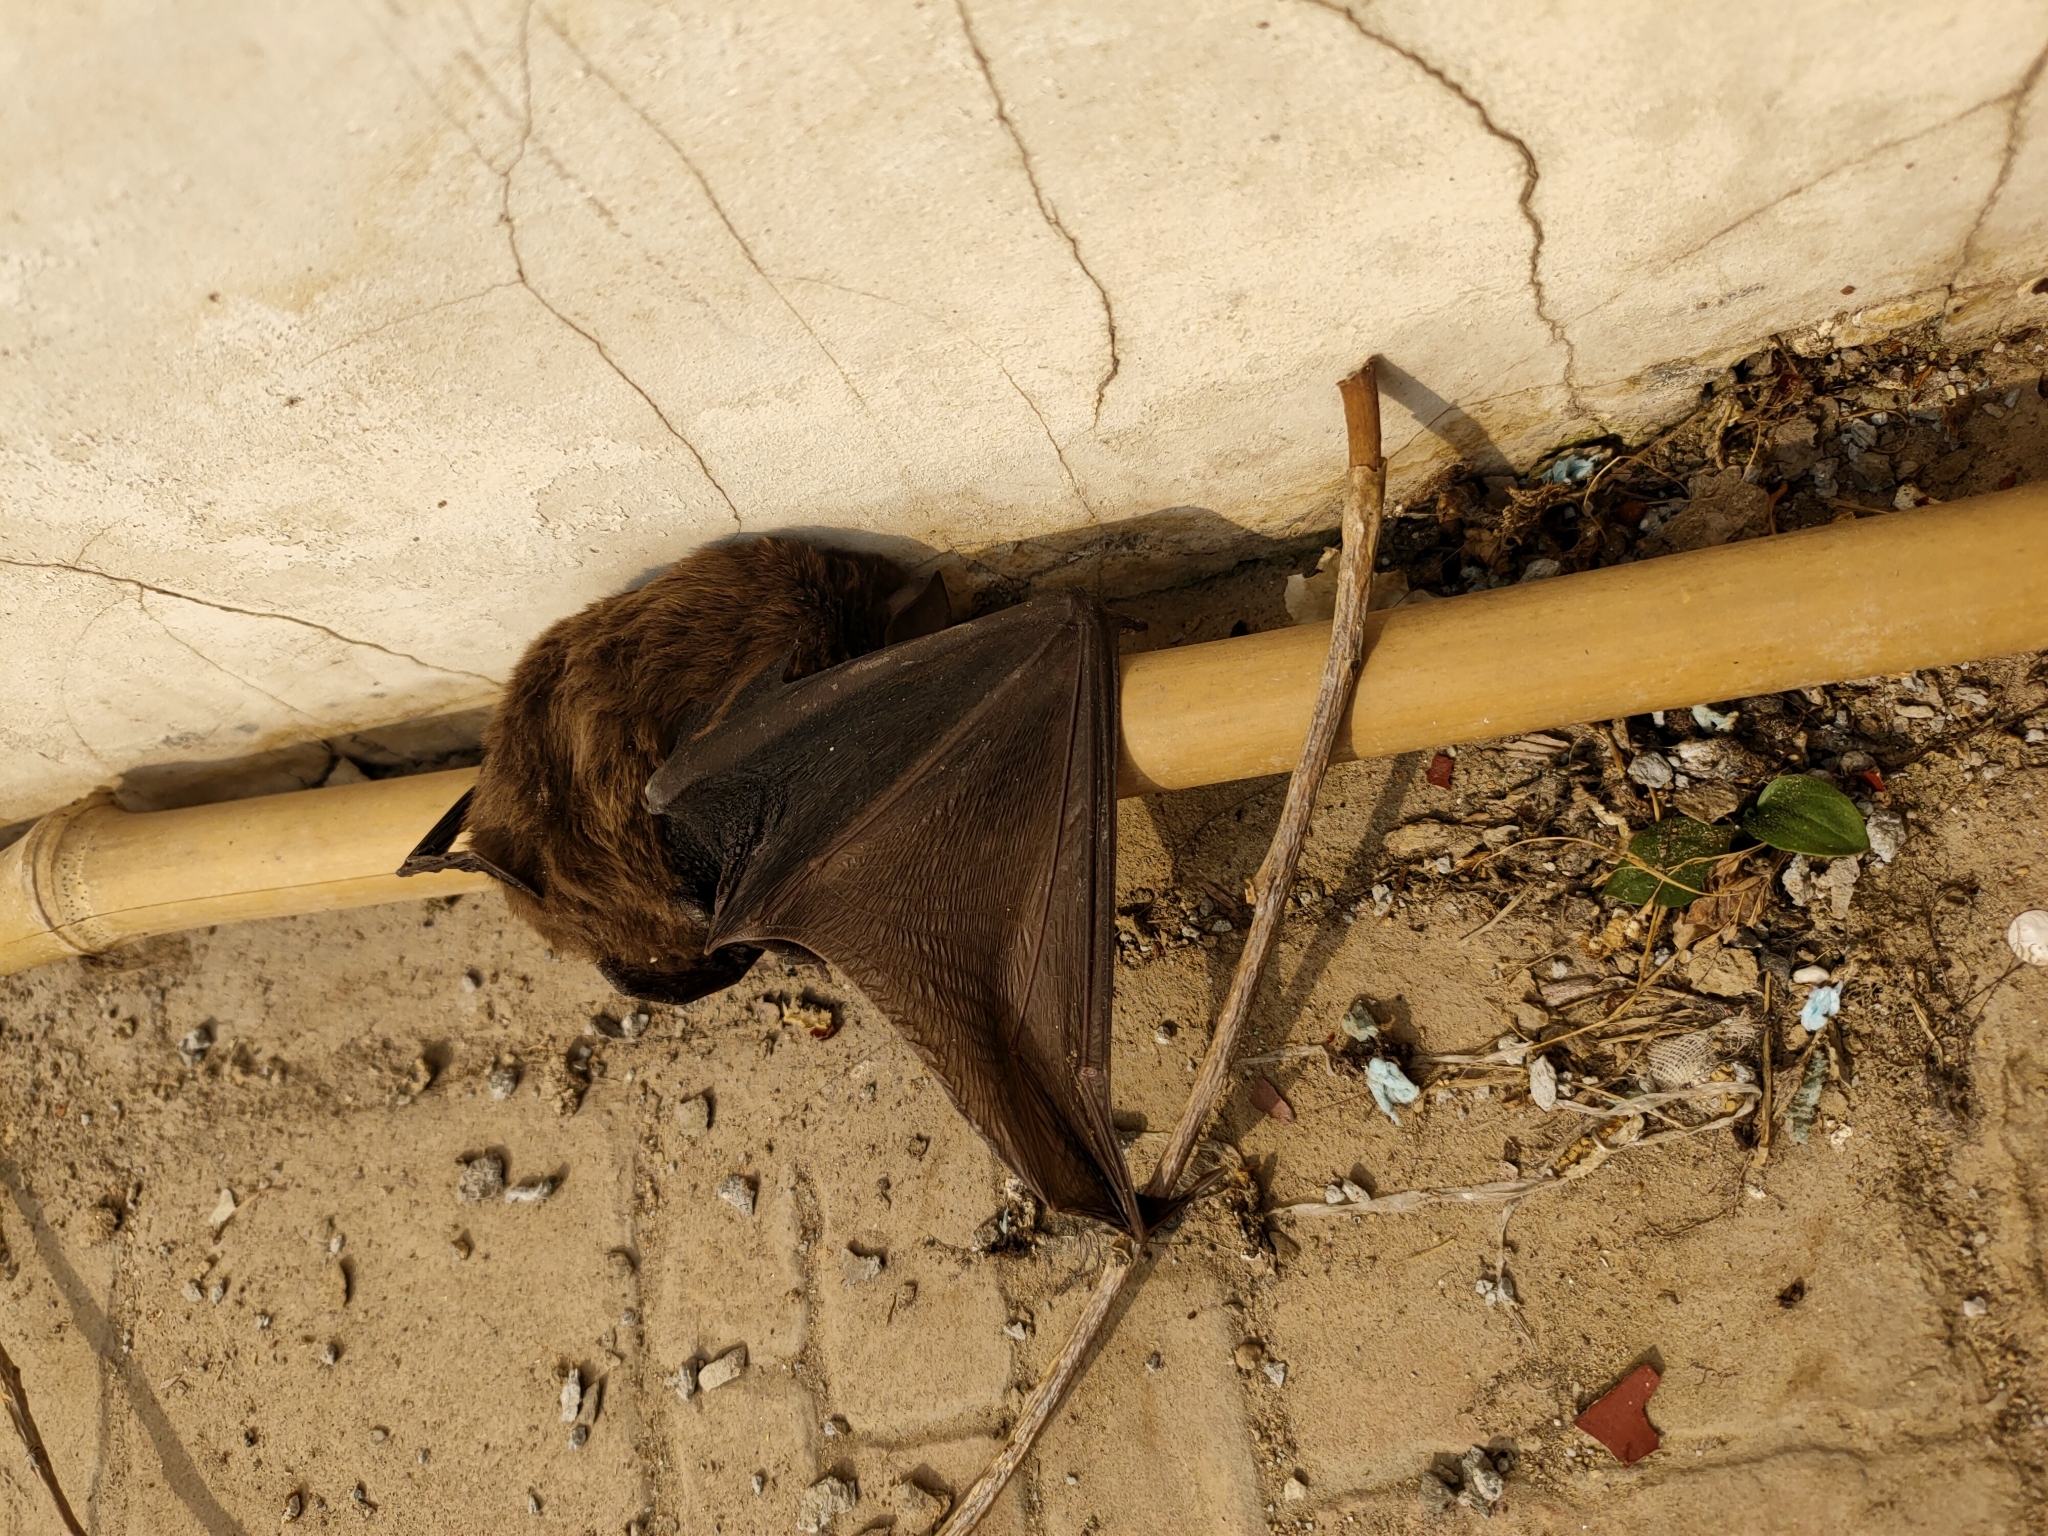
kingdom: Animalia
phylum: Chordata
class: Mammalia
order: Chiroptera
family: Vespertilionidae
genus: Nyctalus
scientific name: Nyctalus plancyi
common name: Chinese noctule
